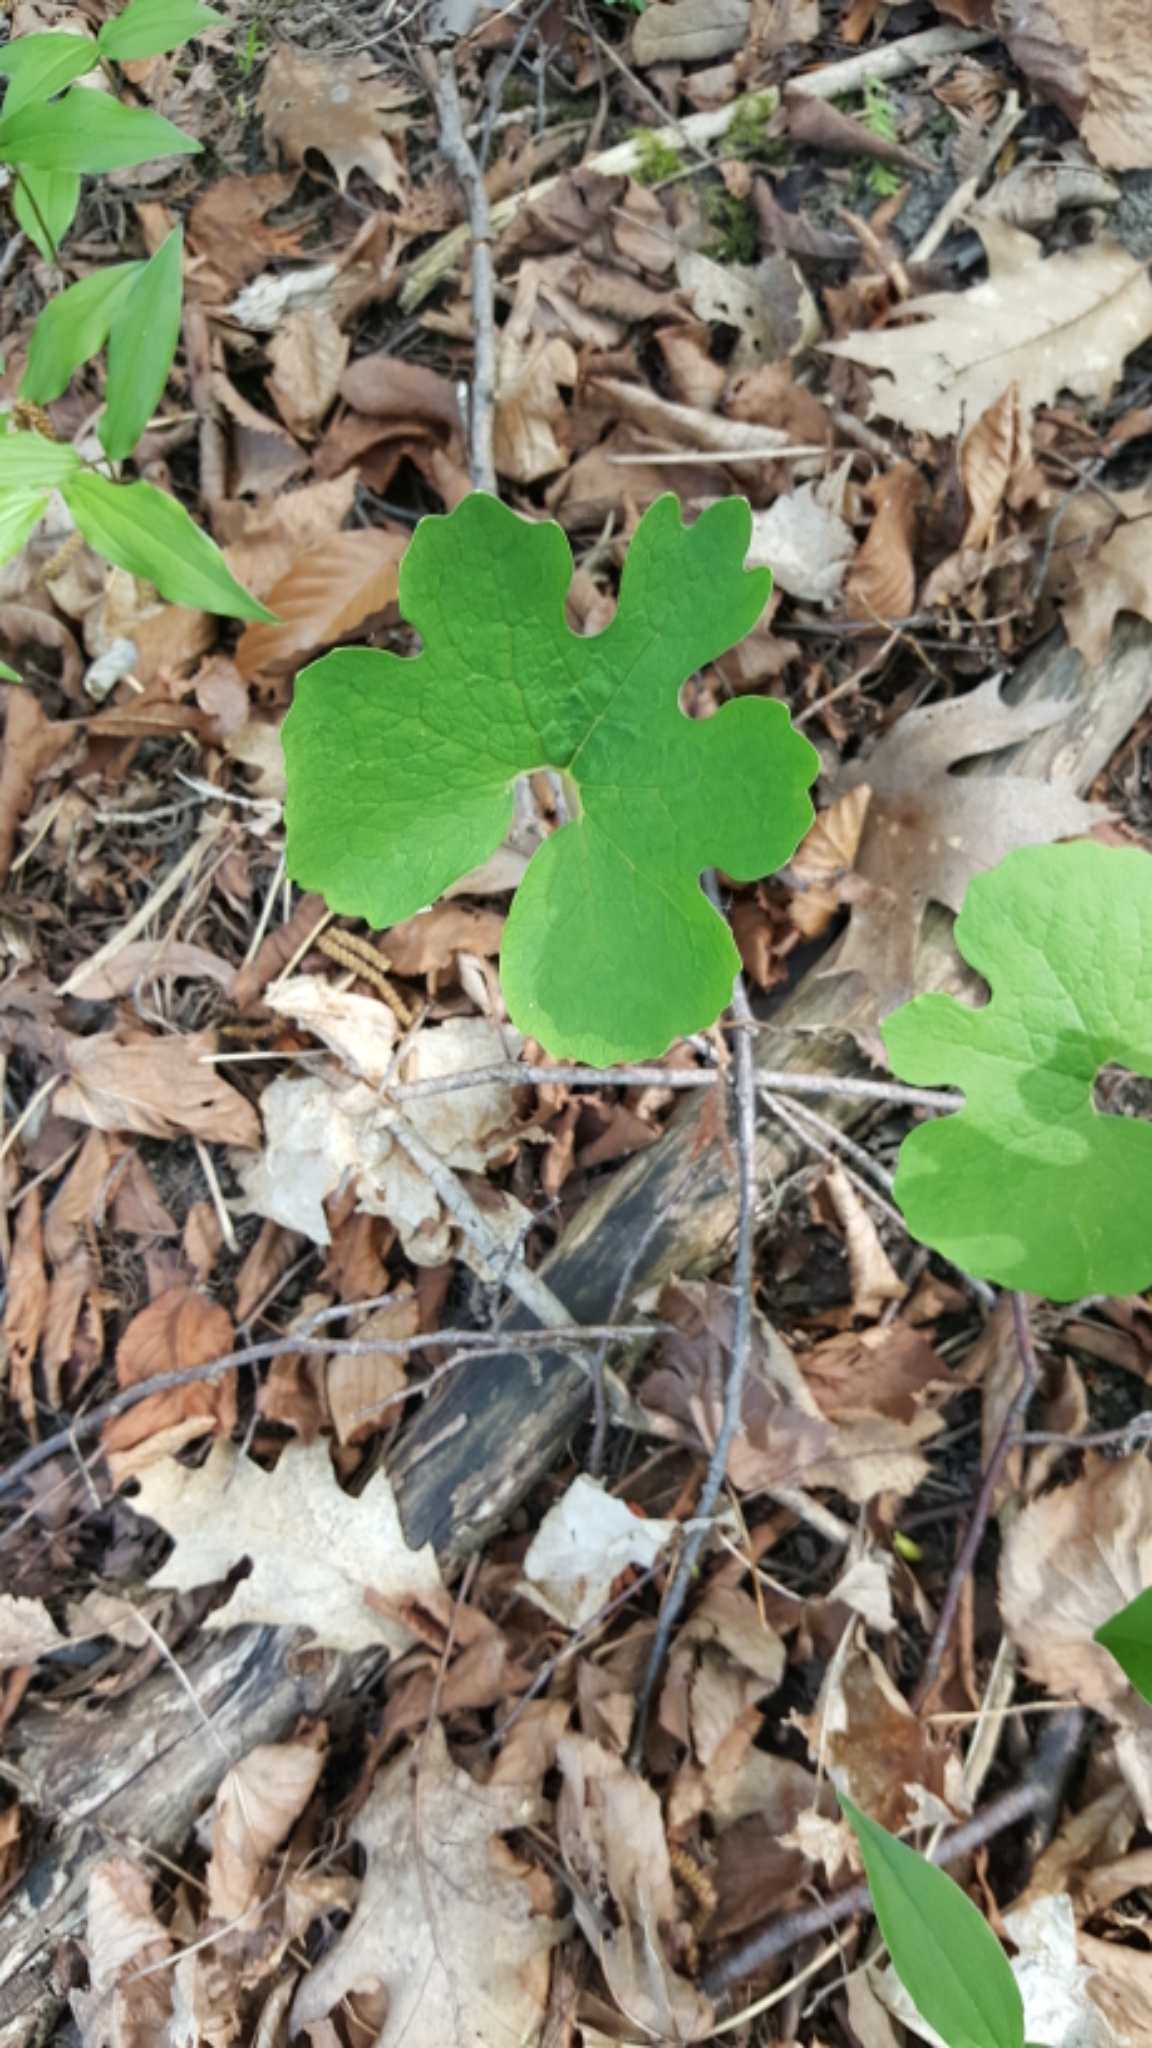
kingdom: Plantae
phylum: Tracheophyta
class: Magnoliopsida
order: Ranunculales
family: Papaveraceae
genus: Sanguinaria
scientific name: Sanguinaria canadensis
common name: Bloodroot
